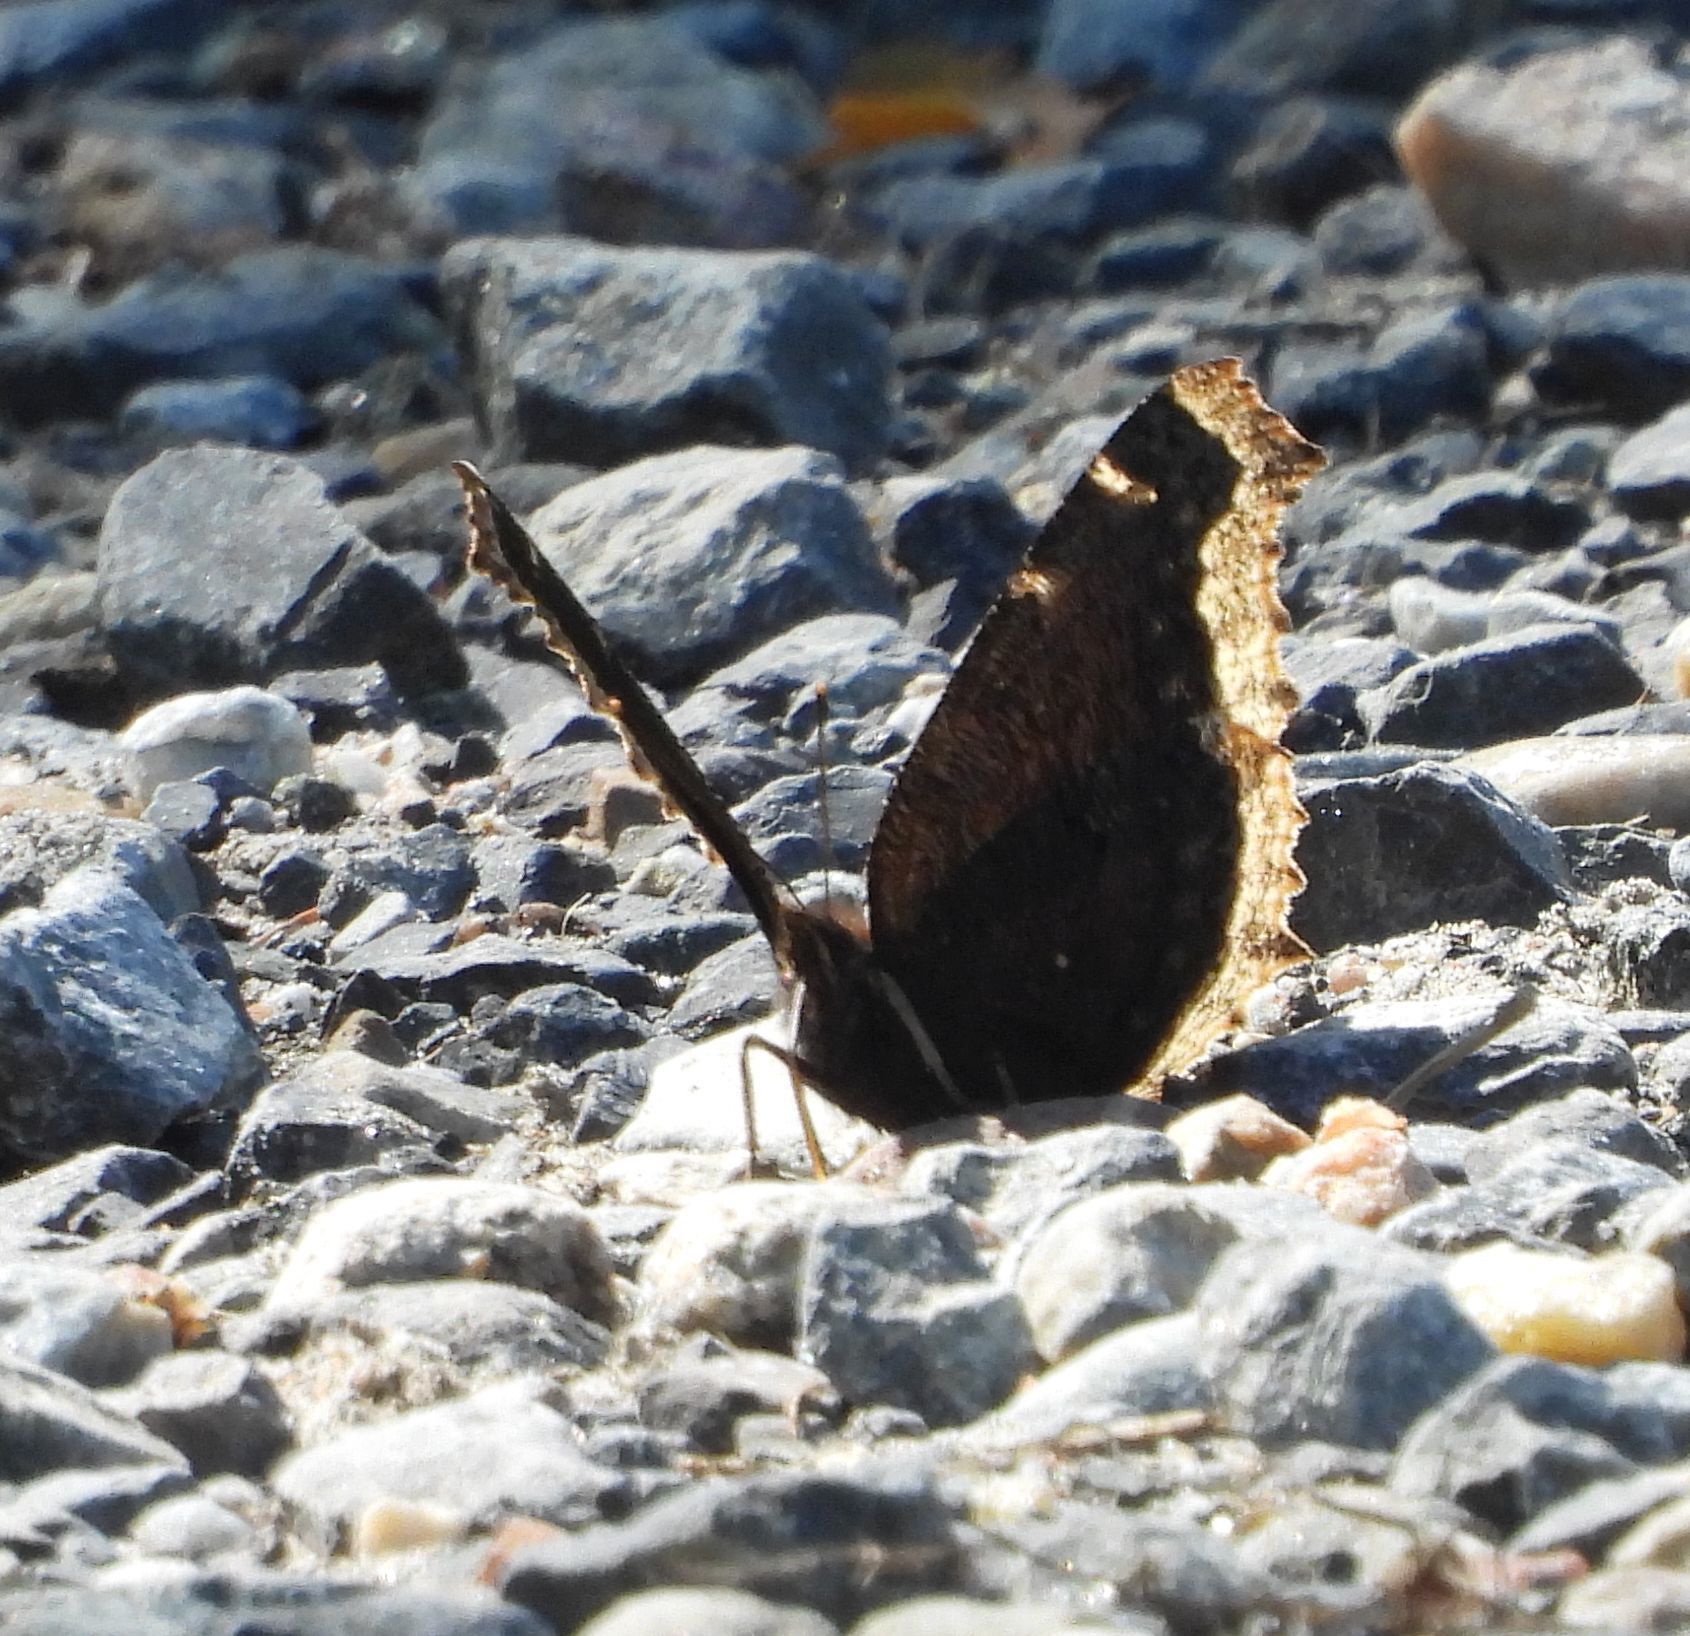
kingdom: Animalia
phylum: Arthropoda
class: Insecta
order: Lepidoptera
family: Nymphalidae
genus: Nymphalis
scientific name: Nymphalis antiopa
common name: Camberwell beauty
